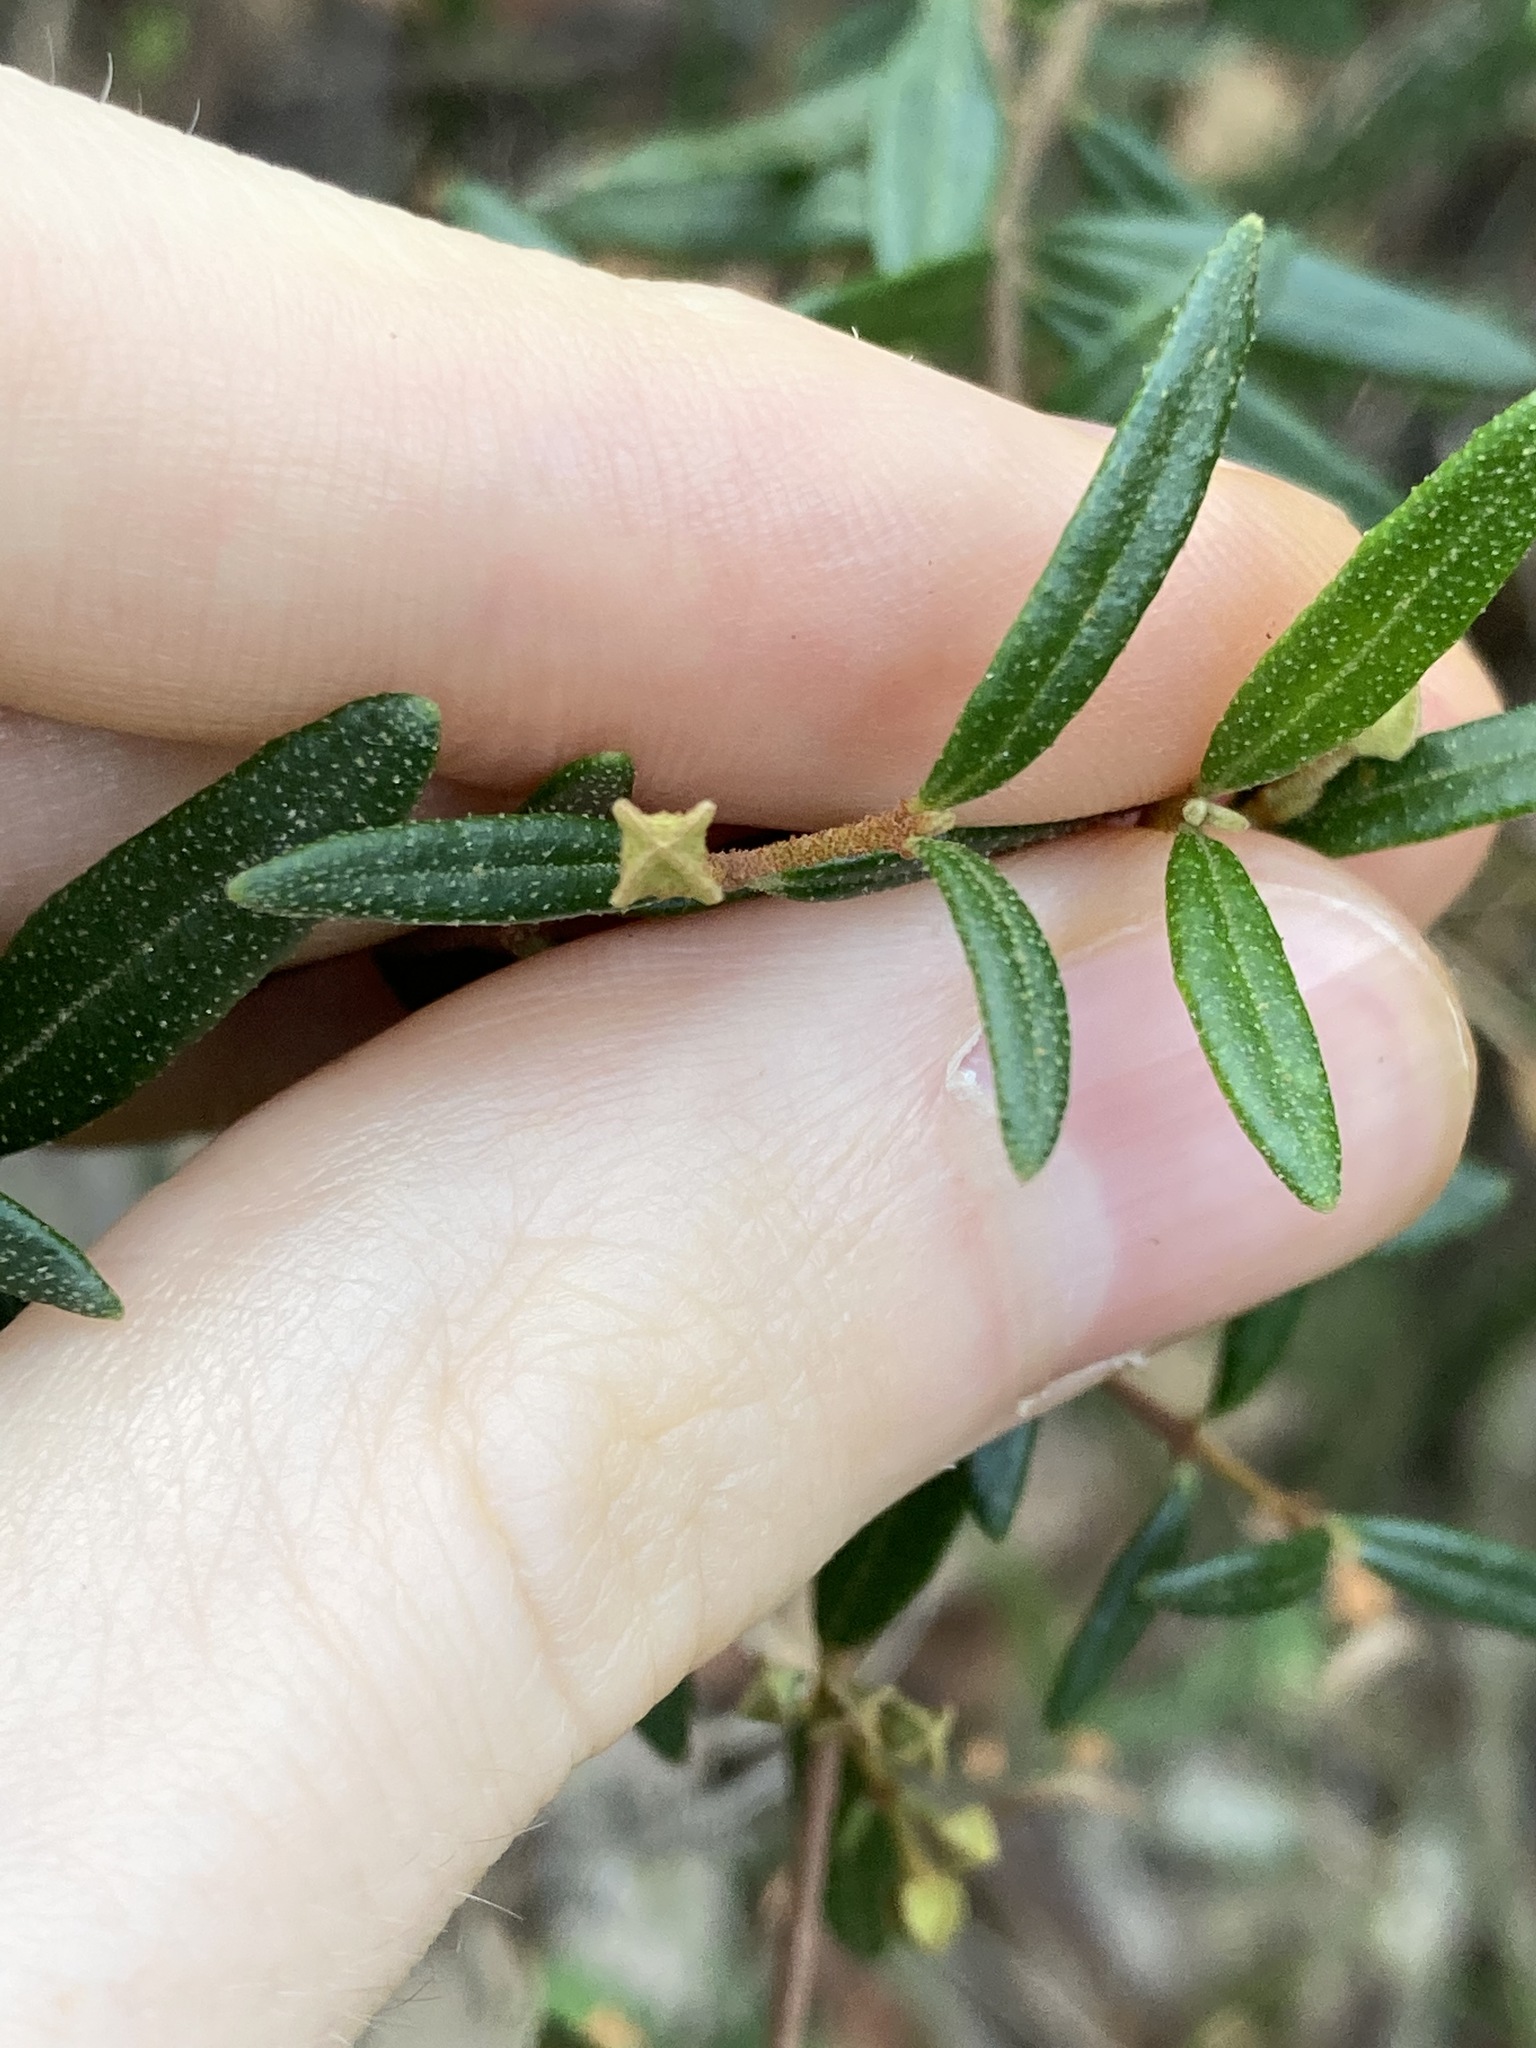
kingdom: Plantae
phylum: Tracheophyta
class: Magnoliopsida
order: Sapindales
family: Rutaceae
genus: Boronia
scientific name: Boronia ledifolia
